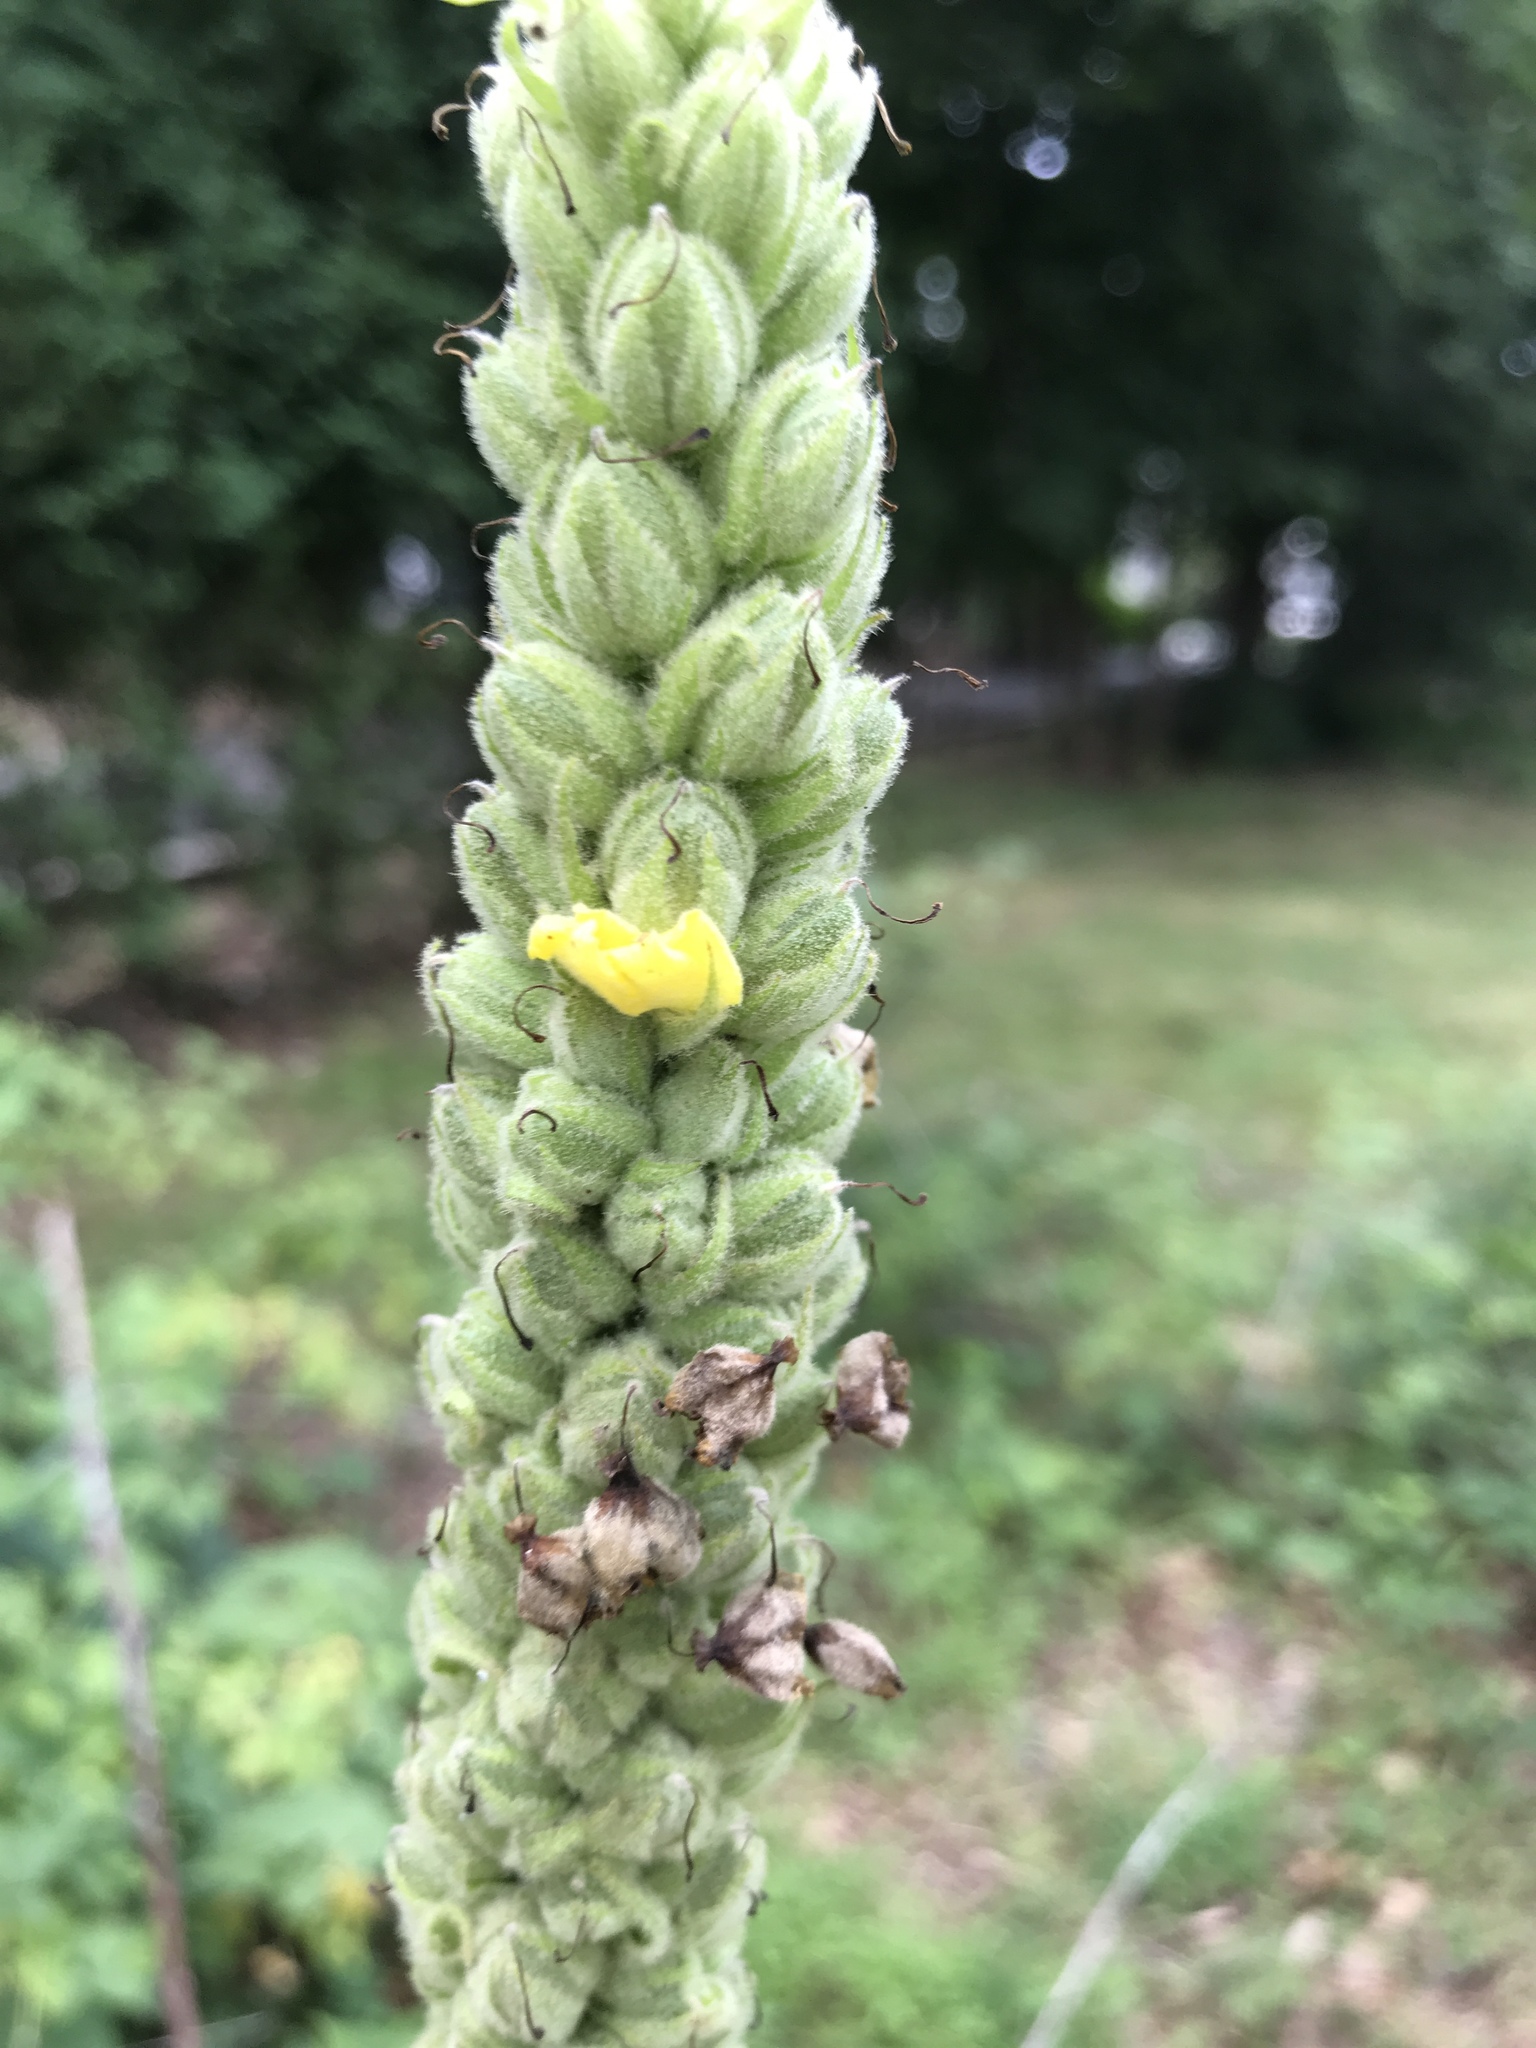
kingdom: Plantae
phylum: Tracheophyta
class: Magnoliopsida
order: Lamiales
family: Scrophulariaceae
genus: Verbascum
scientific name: Verbascum thapsus
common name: Common mullein
